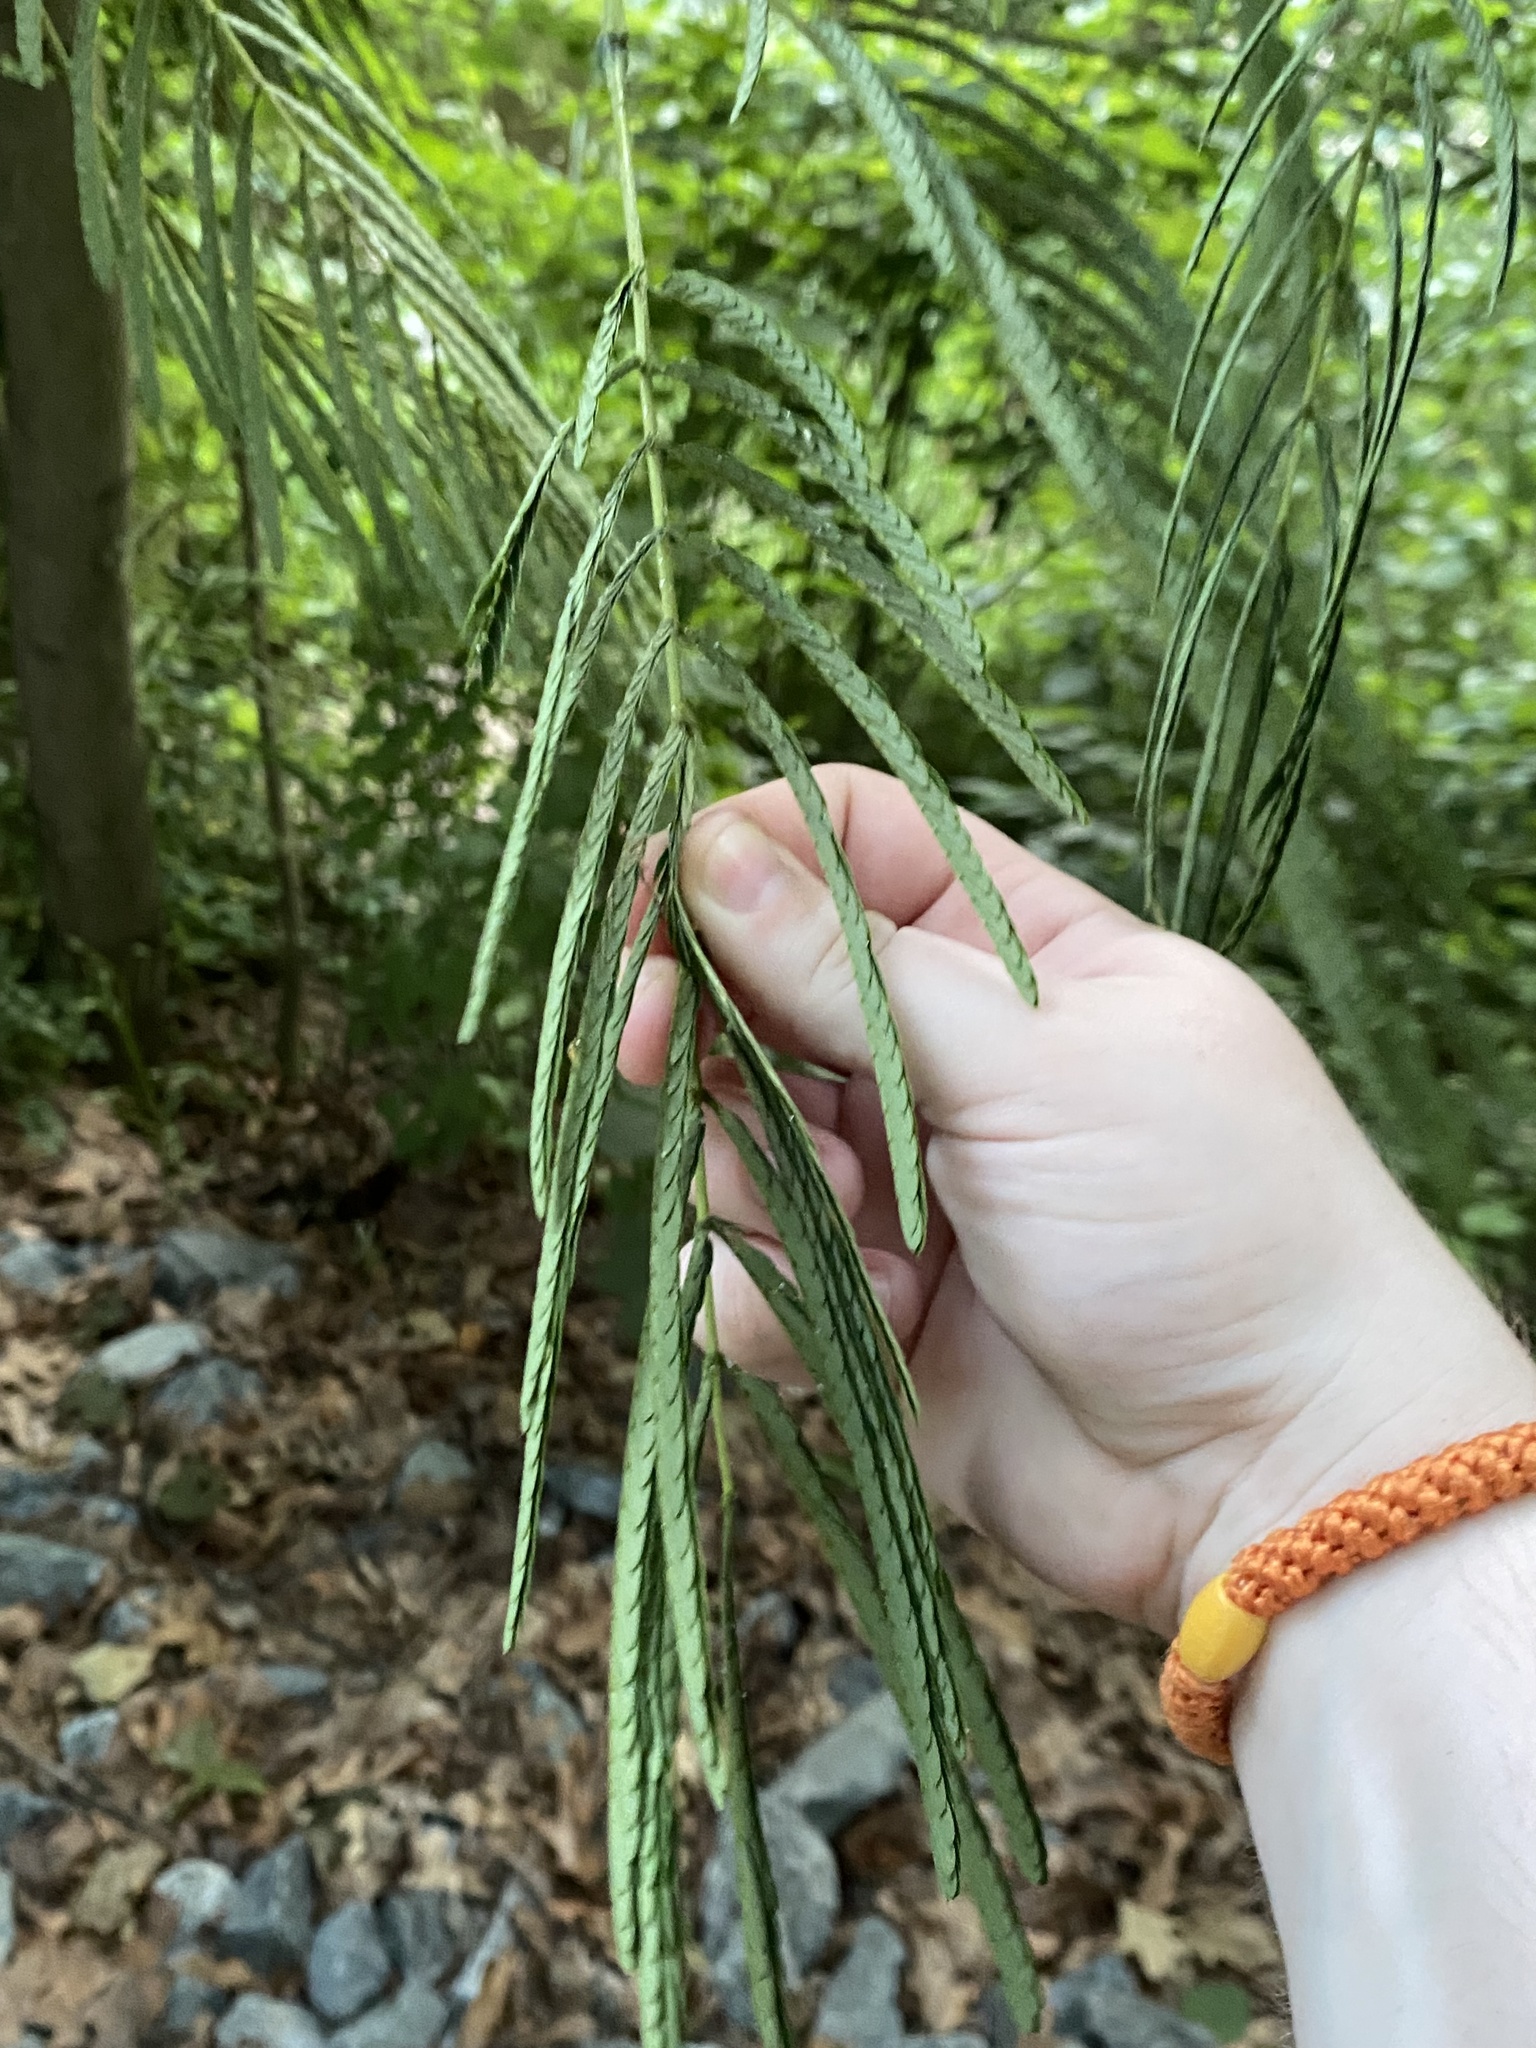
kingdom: Plantae
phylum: Tracheophyta
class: Magnoliopsida
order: Fabales
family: Fabaceae
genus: Albizia
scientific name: Albizia julibrissin
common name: Silktree
